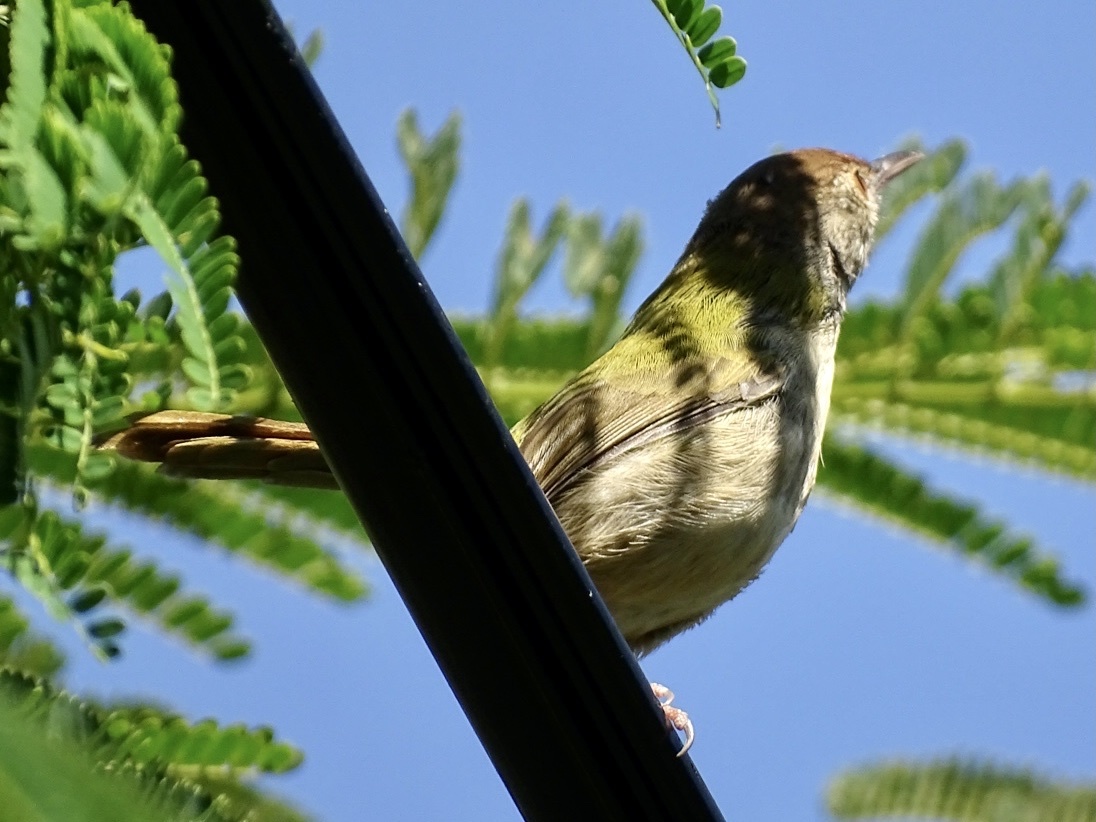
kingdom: Animalia
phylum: Chordata
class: Aves
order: Passeriformes
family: Cisticolidae
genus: Orthotomus
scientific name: Orthotomus sutorius
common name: Common tailorbird
